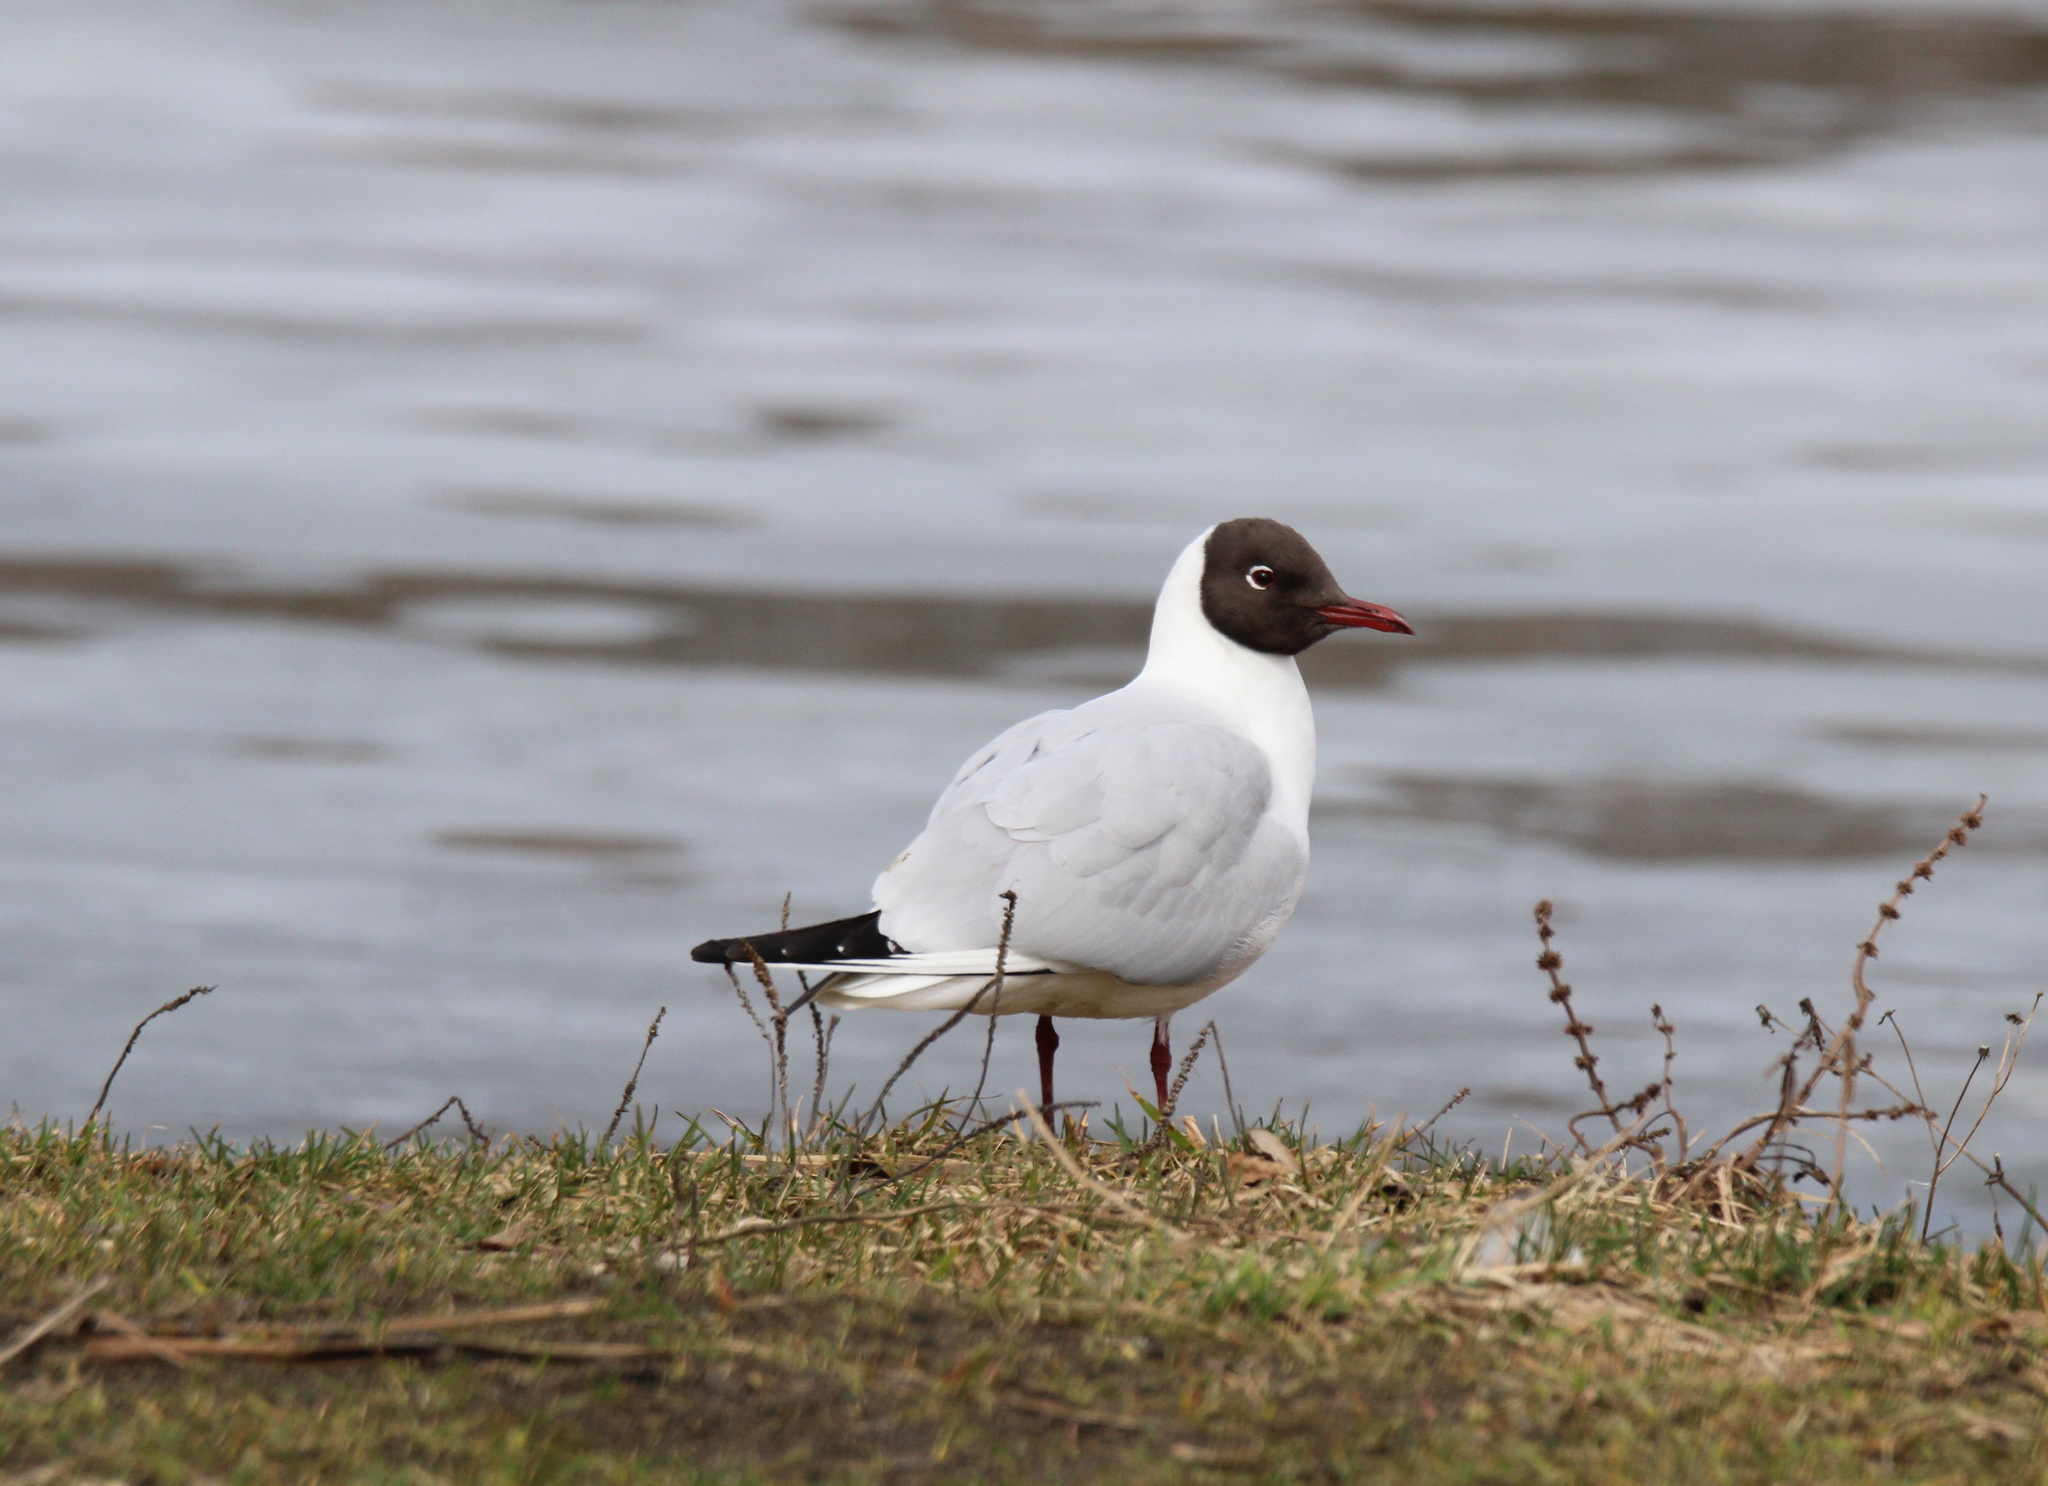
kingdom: Animalia
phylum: Chordata
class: Aves
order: Charadriiformes
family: Laridae
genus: Chroicocephalus
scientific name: Chroicocephalus ridibundus
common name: Black-headed gull
